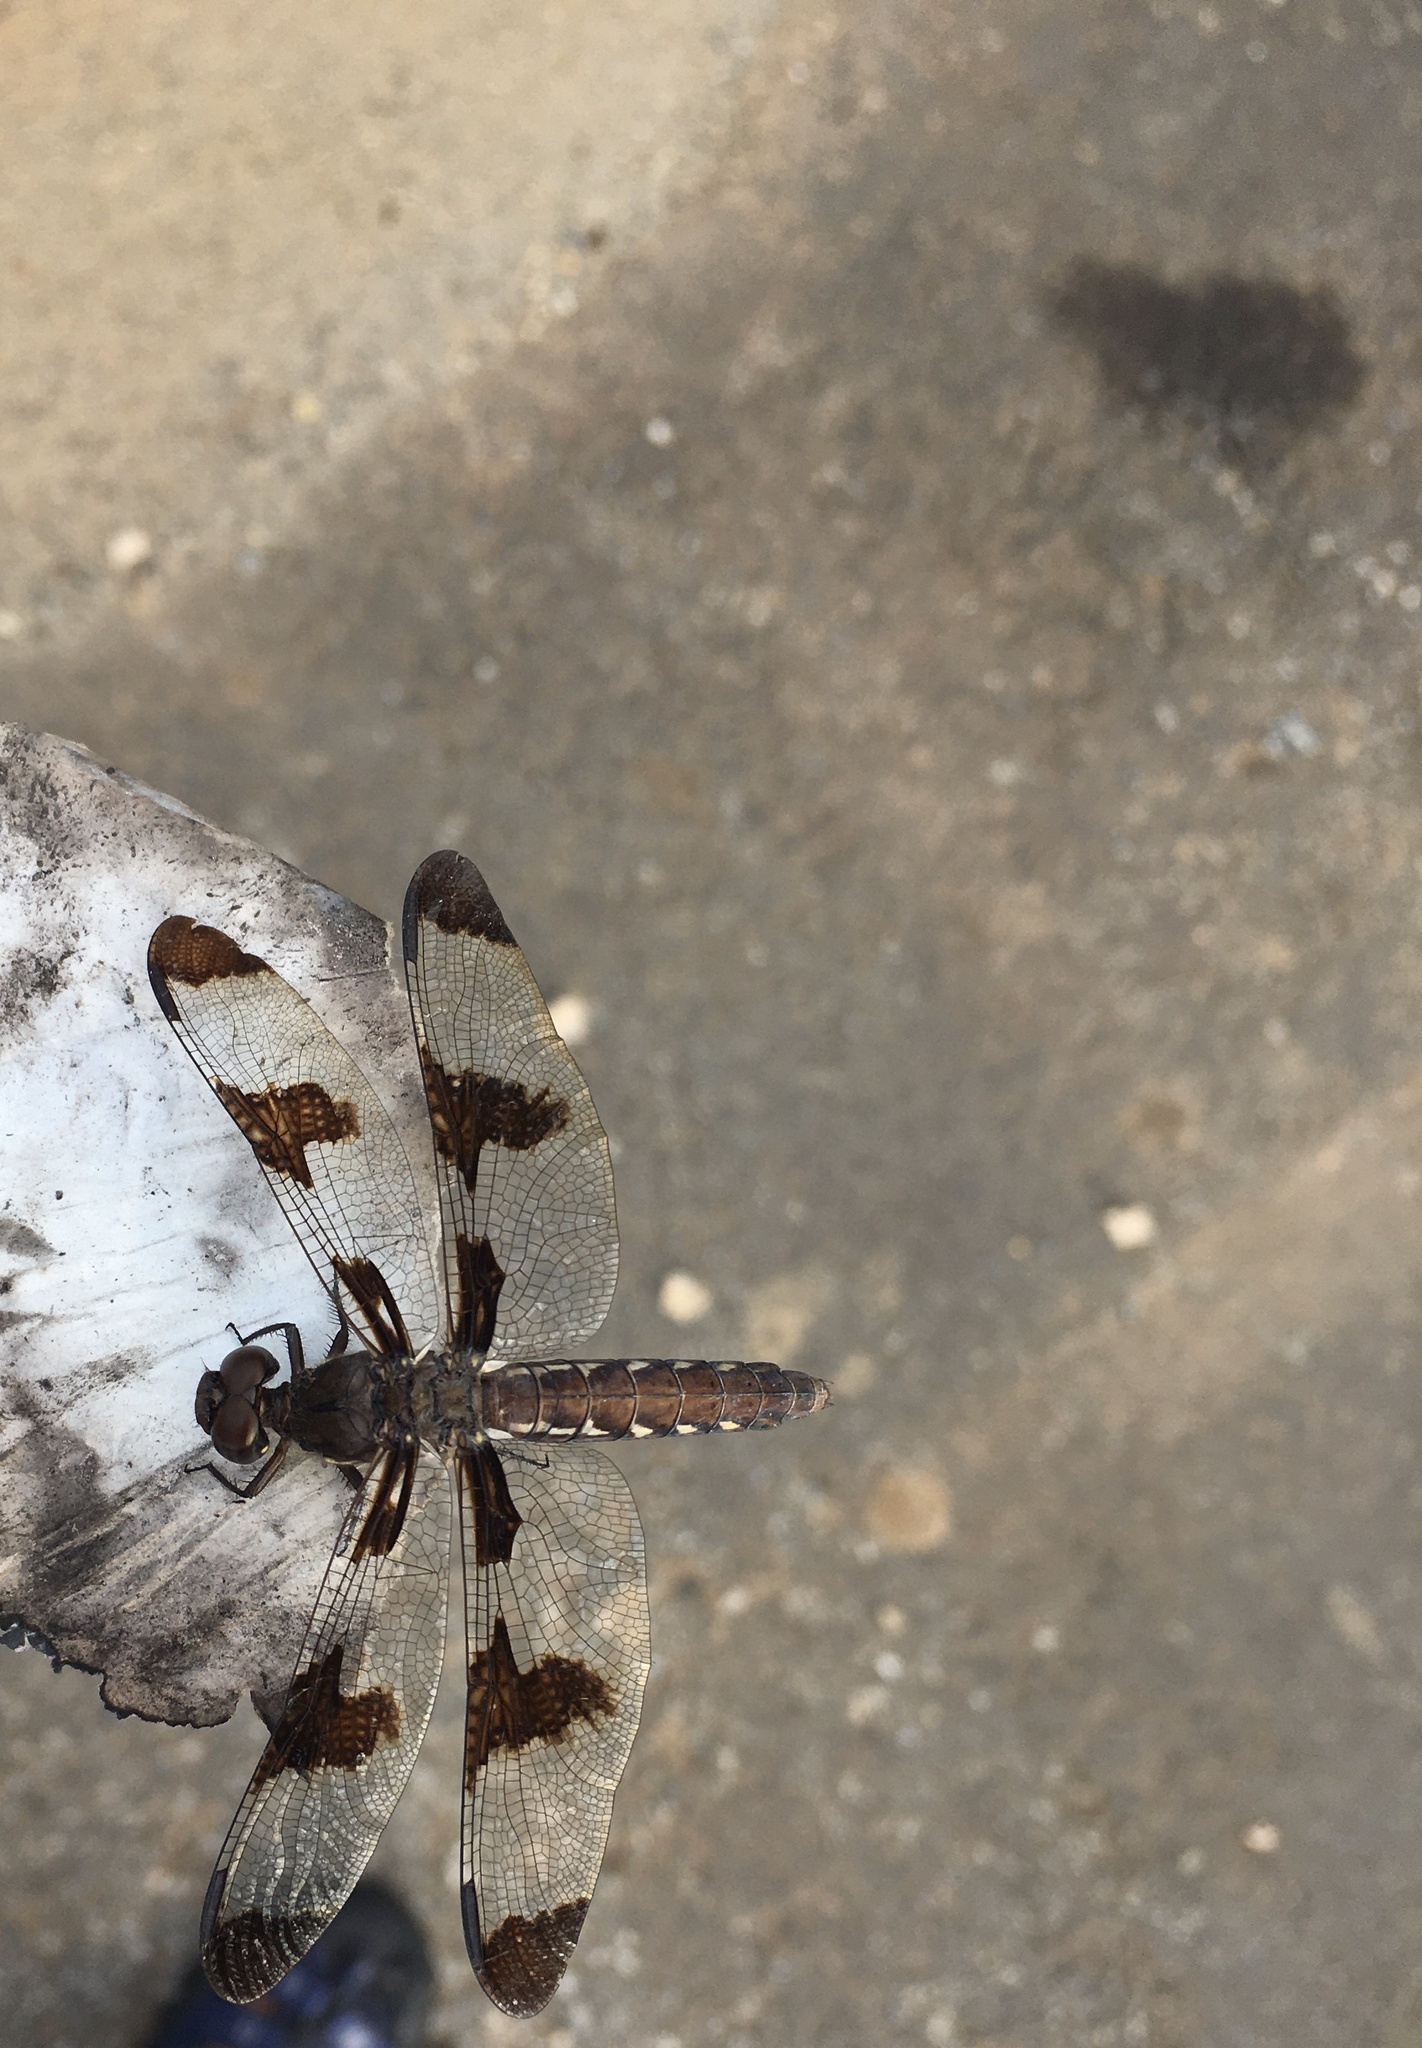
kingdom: Animalia
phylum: Arthropoda
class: Insecta
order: Odonata
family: Libellulidae
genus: Plathemis
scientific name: Plathemis lydia
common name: Common whitetail
